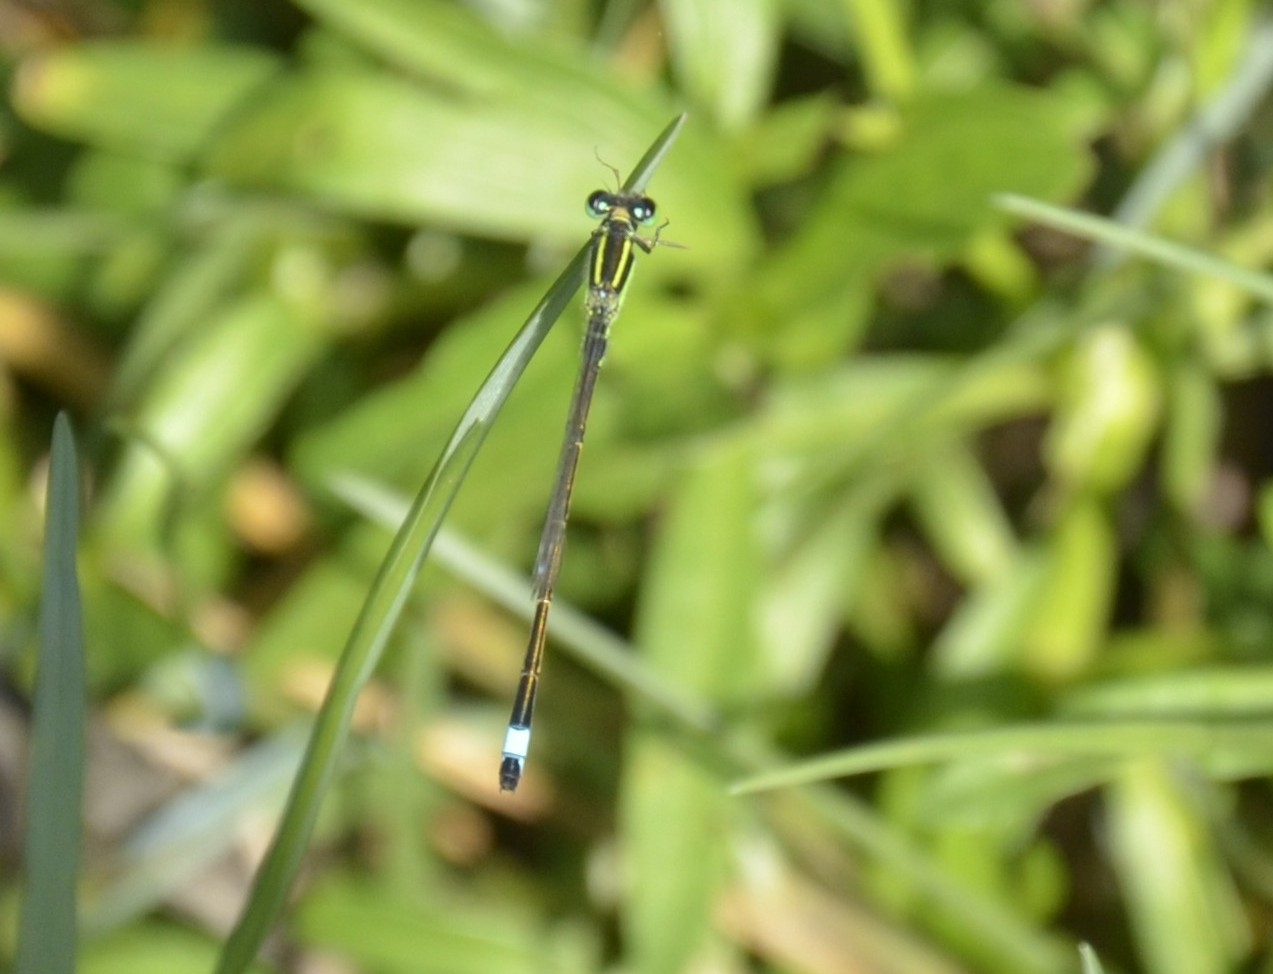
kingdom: Animalia
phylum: Arthropoda
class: Insecta
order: Odonata
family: Coenagrionidae
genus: Ischnura
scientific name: Ischnura senegalensis
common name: Tropical bluetail
